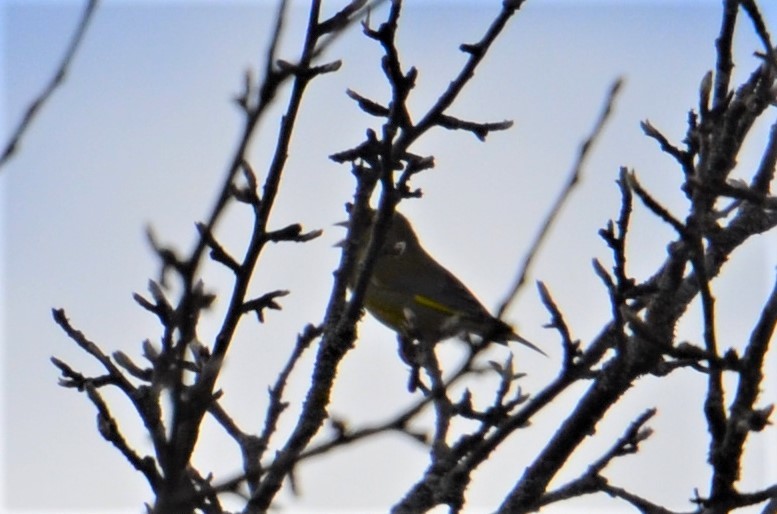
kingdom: Plantae
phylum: Tracheophyta
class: Liliopsida
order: Poales
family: Poaceae
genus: Chloris
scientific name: Chloris chloris
